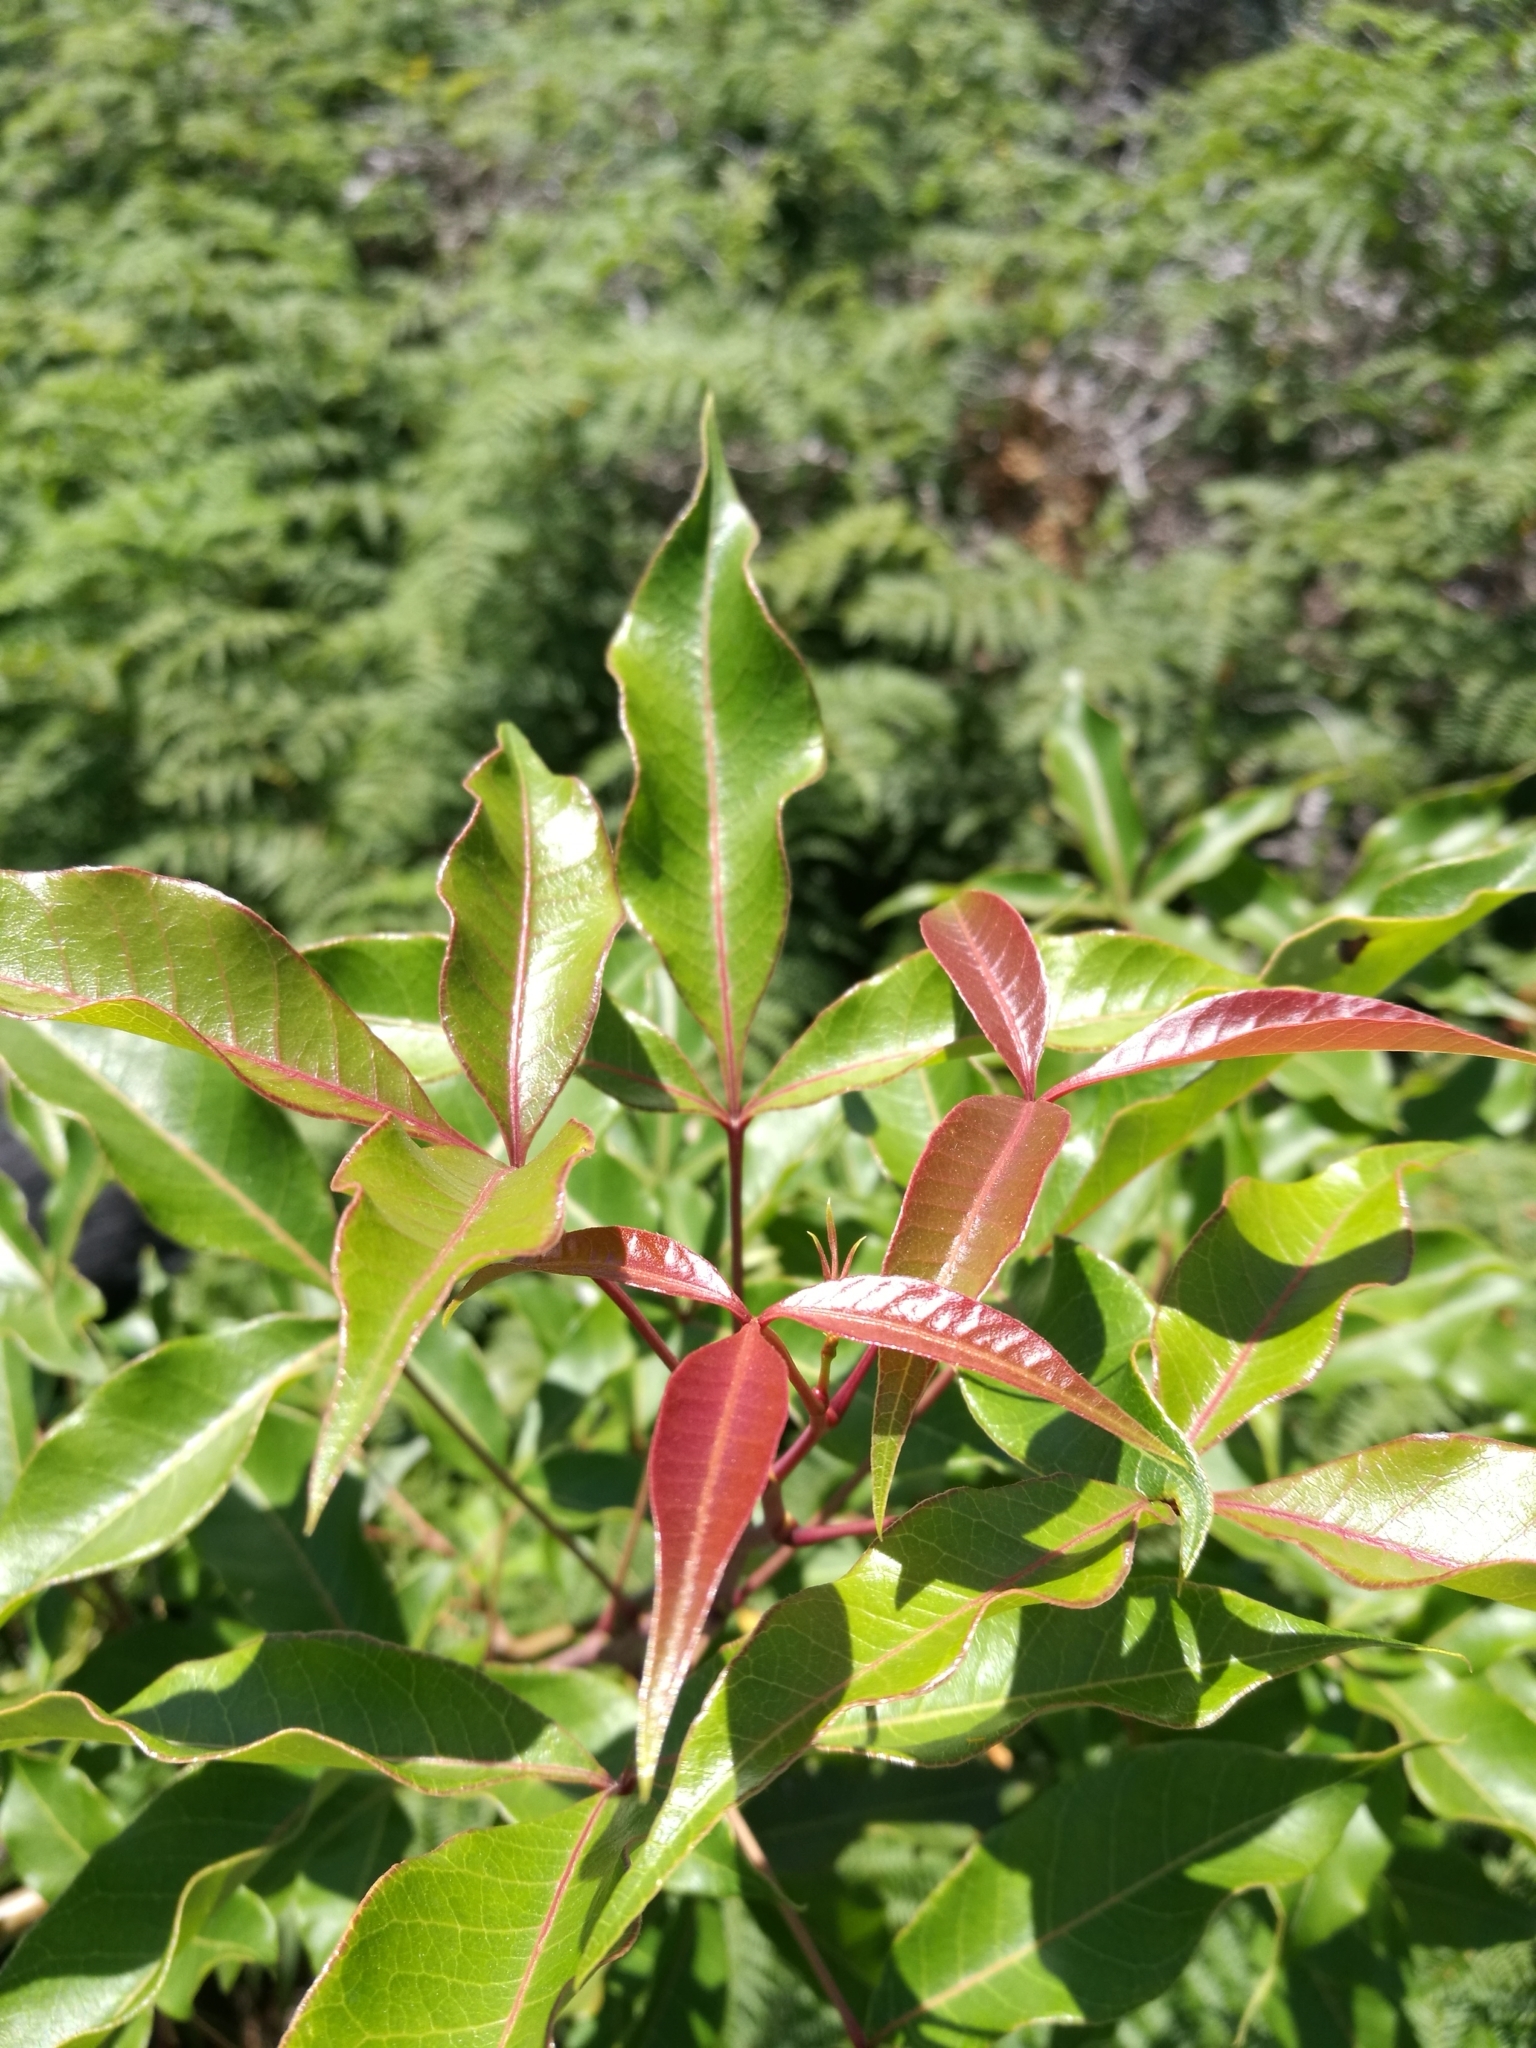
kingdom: Plantae
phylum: Tracheophyta
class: Magnoliopsida
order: Sapindales
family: Anacardiaceae
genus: Searsia
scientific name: Searsia chirindensis
